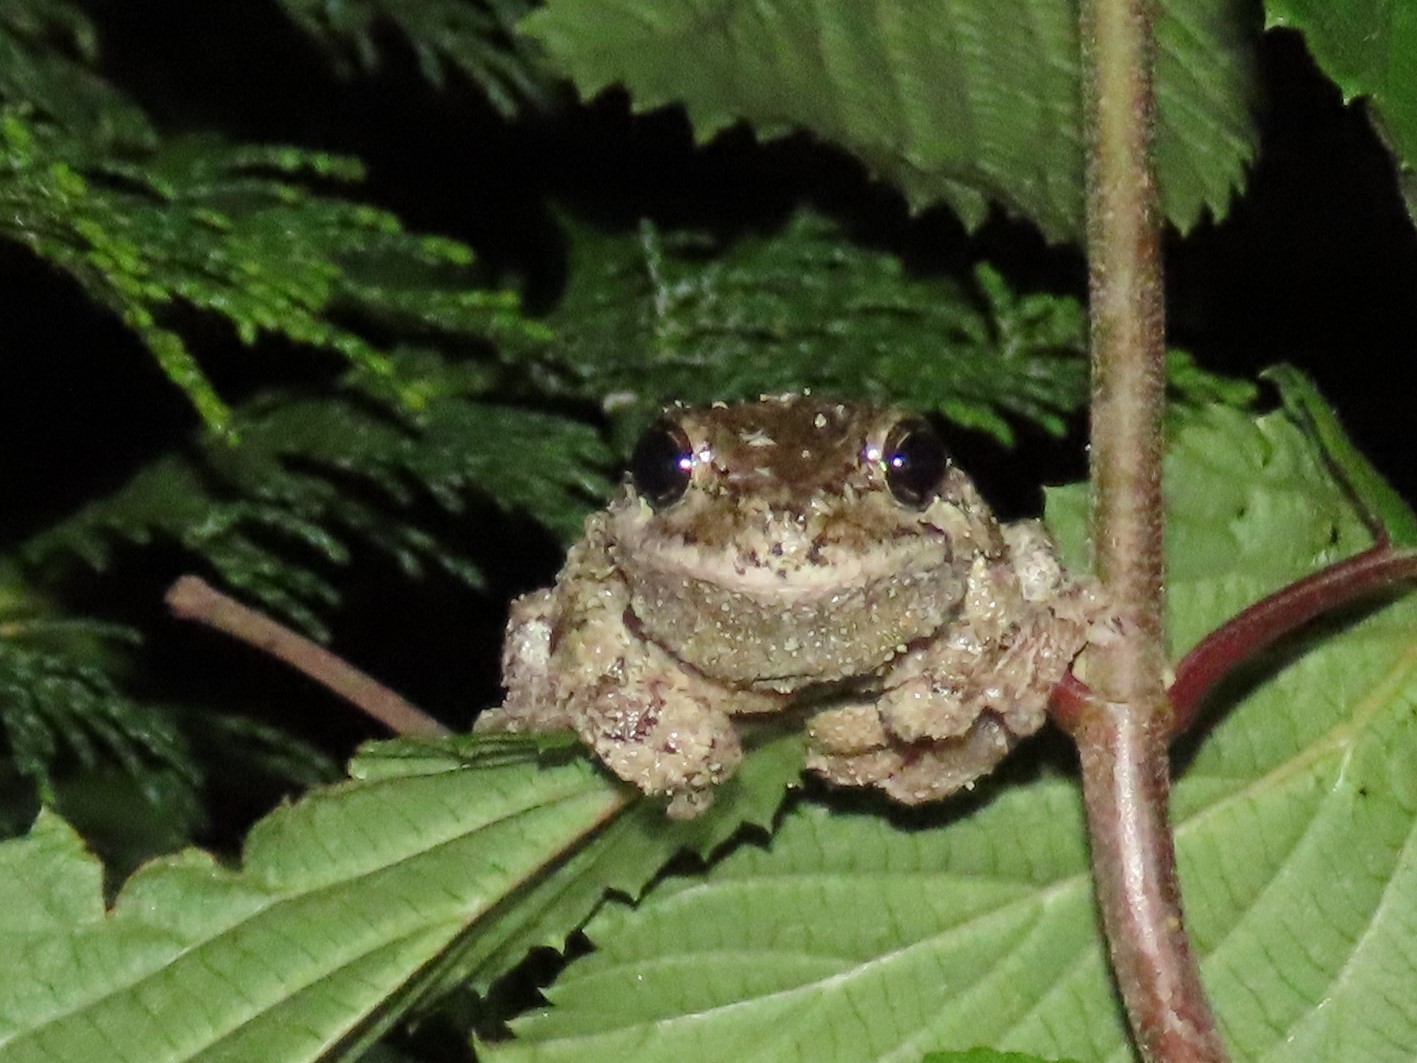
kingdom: Animalia
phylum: Chordata
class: Amphibia
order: Anura
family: Hylidae
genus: Dryophytes
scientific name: Dryophytes versicolor
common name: Gray treefrog
